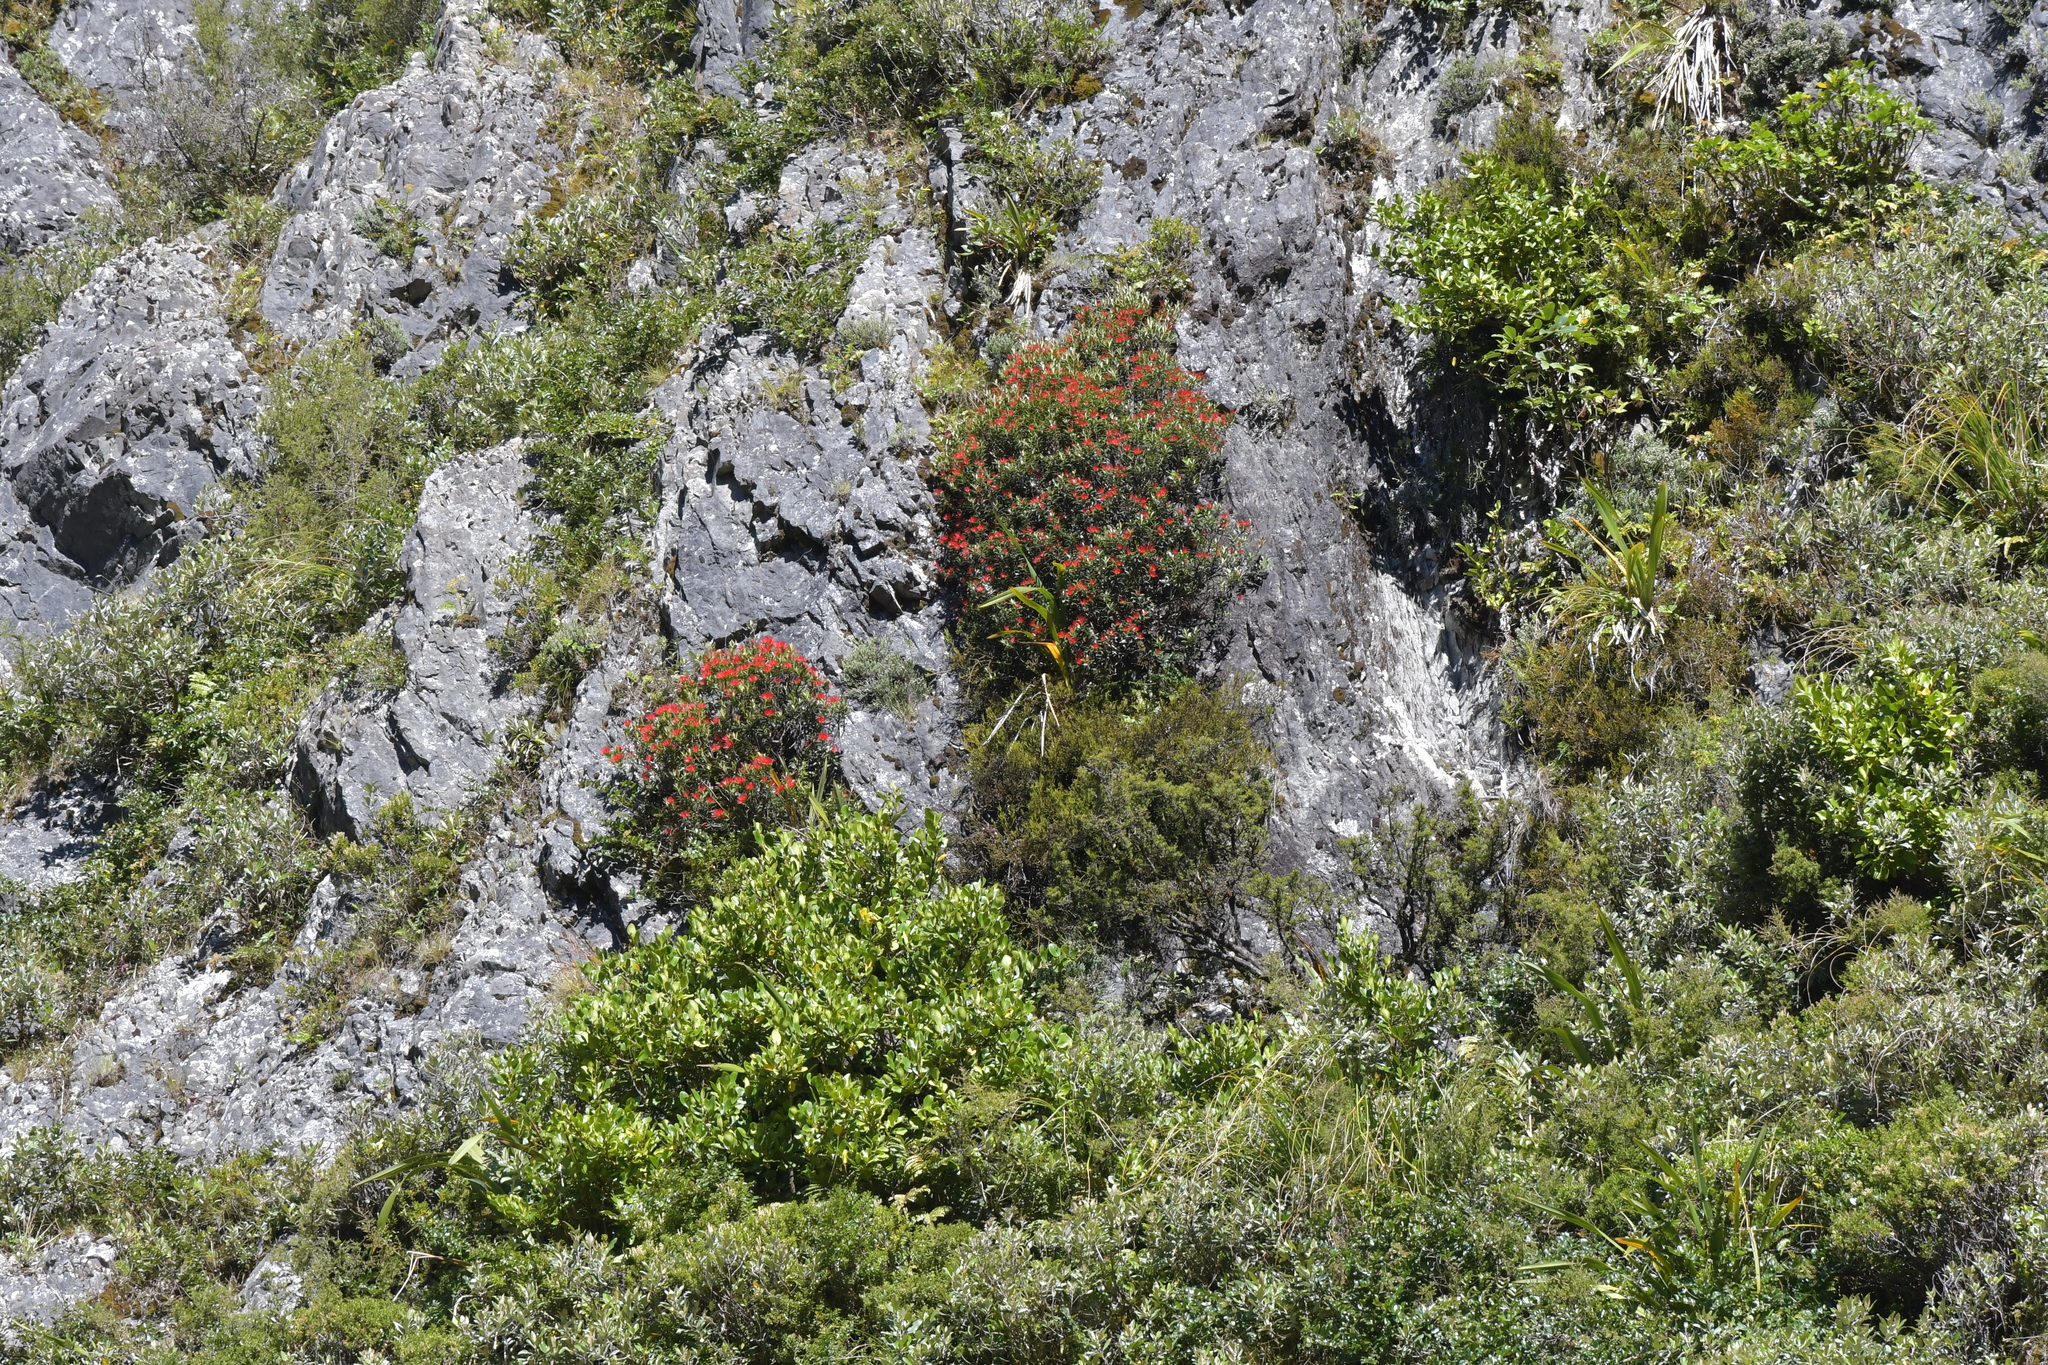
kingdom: Plantae
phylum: Tracheophyta
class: Magnoliopsida
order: Myrtales
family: Myrtaceae
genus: Metrosideros
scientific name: Metrosideros umbellata
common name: Southern rata
